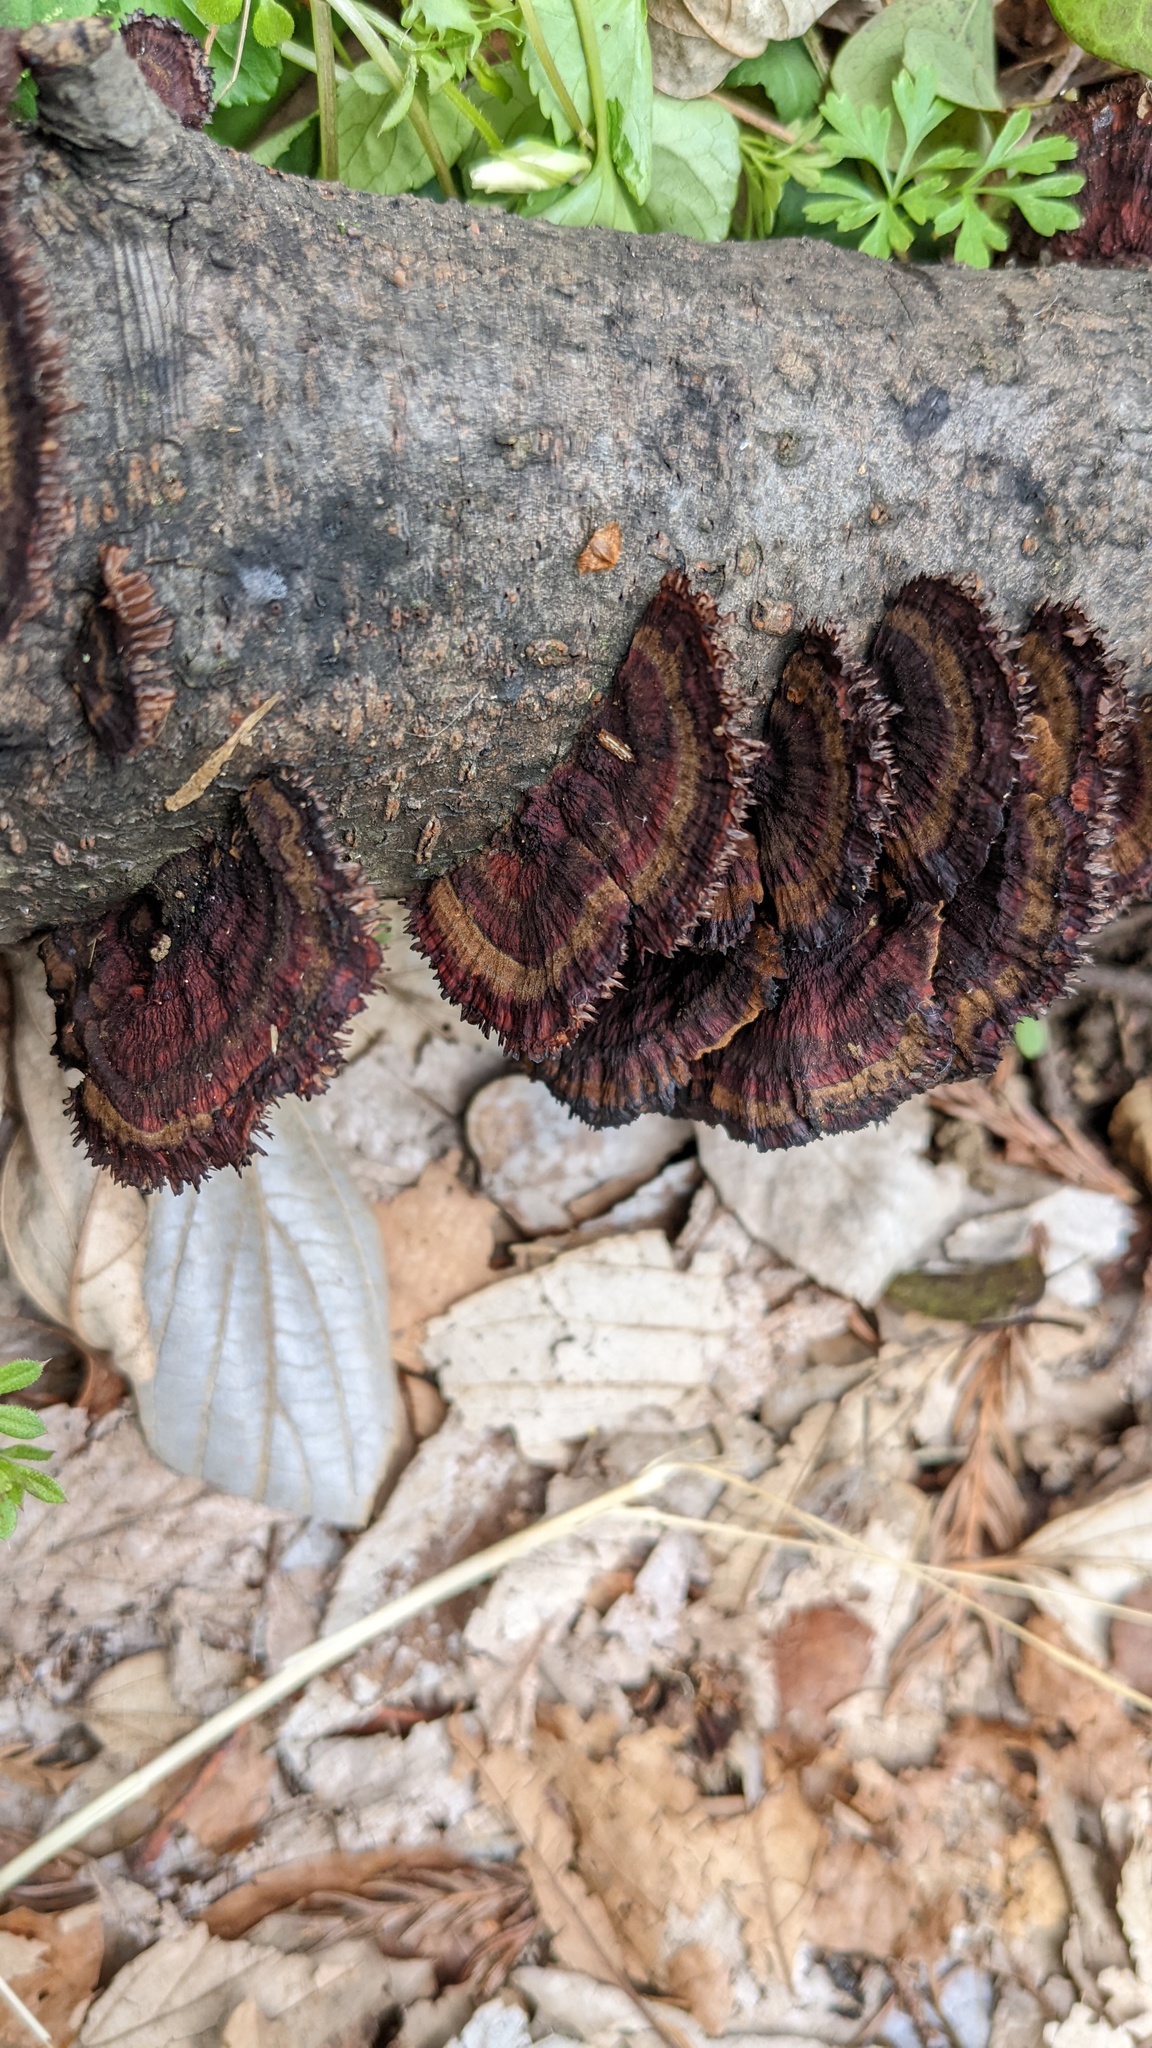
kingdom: Fungi
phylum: Basidiomycota
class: Agaricomycetes
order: Polyporales
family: Polyporaceae
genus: Daedaleopsis
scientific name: Daedaleopsis tricolor
